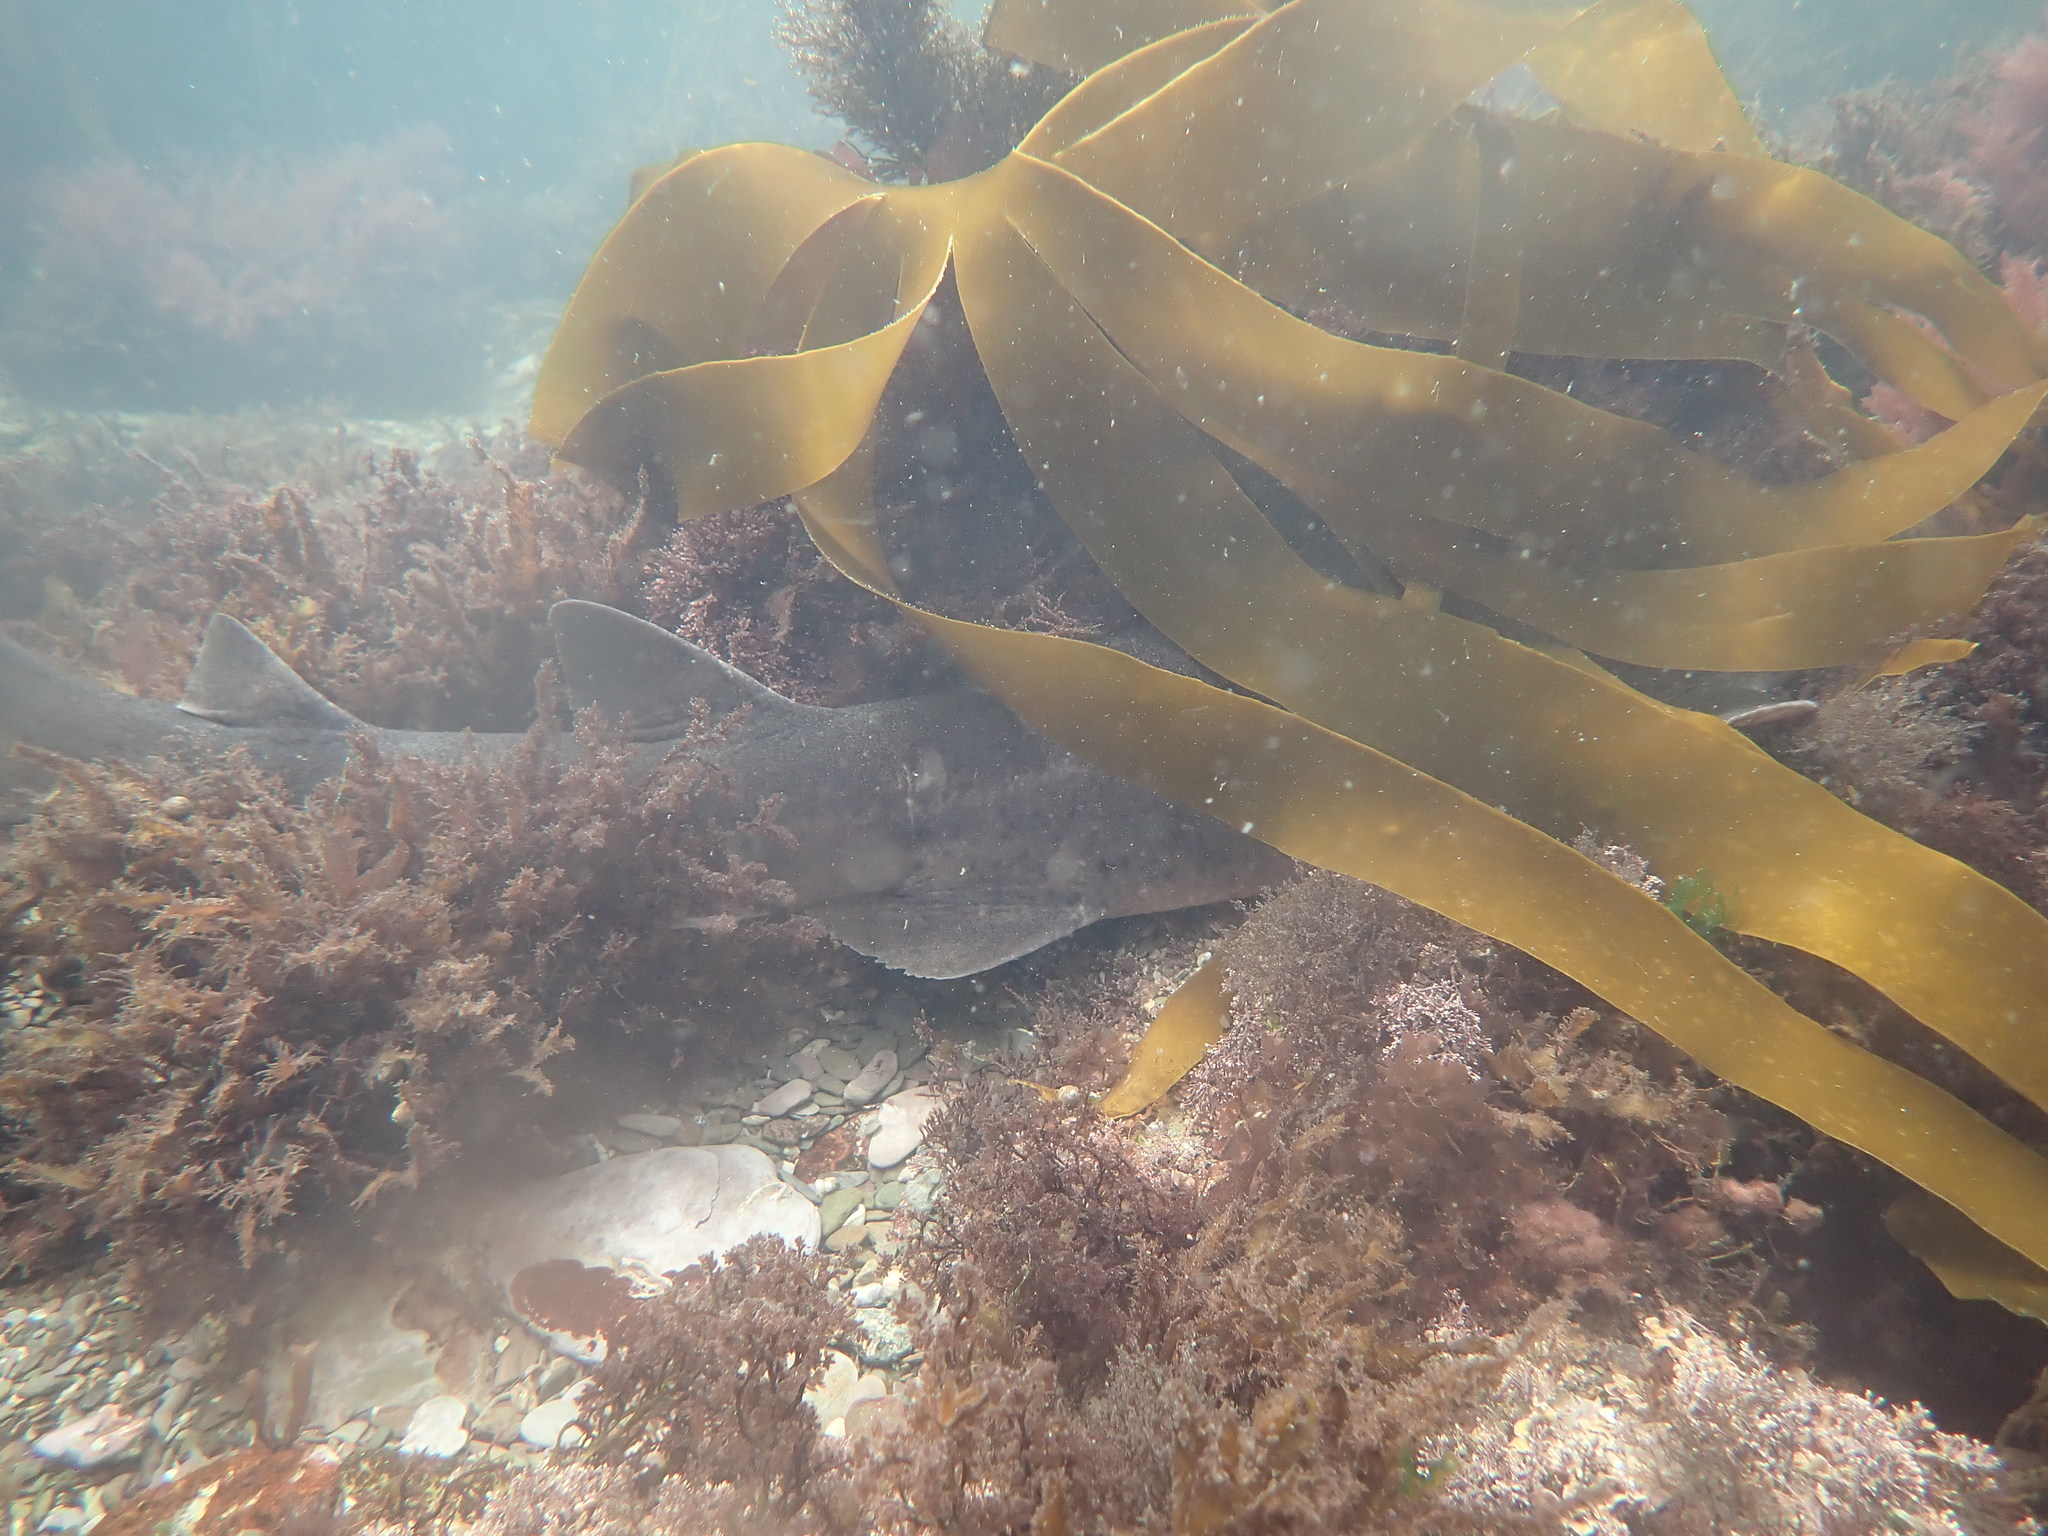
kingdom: Animalia
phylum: Chordata
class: Elasmobranchii
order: Carcharhiniformes
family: Scyliorhinidae
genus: Scyliorhinus
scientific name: Scyliorhinus stellaris
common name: Nursehound
